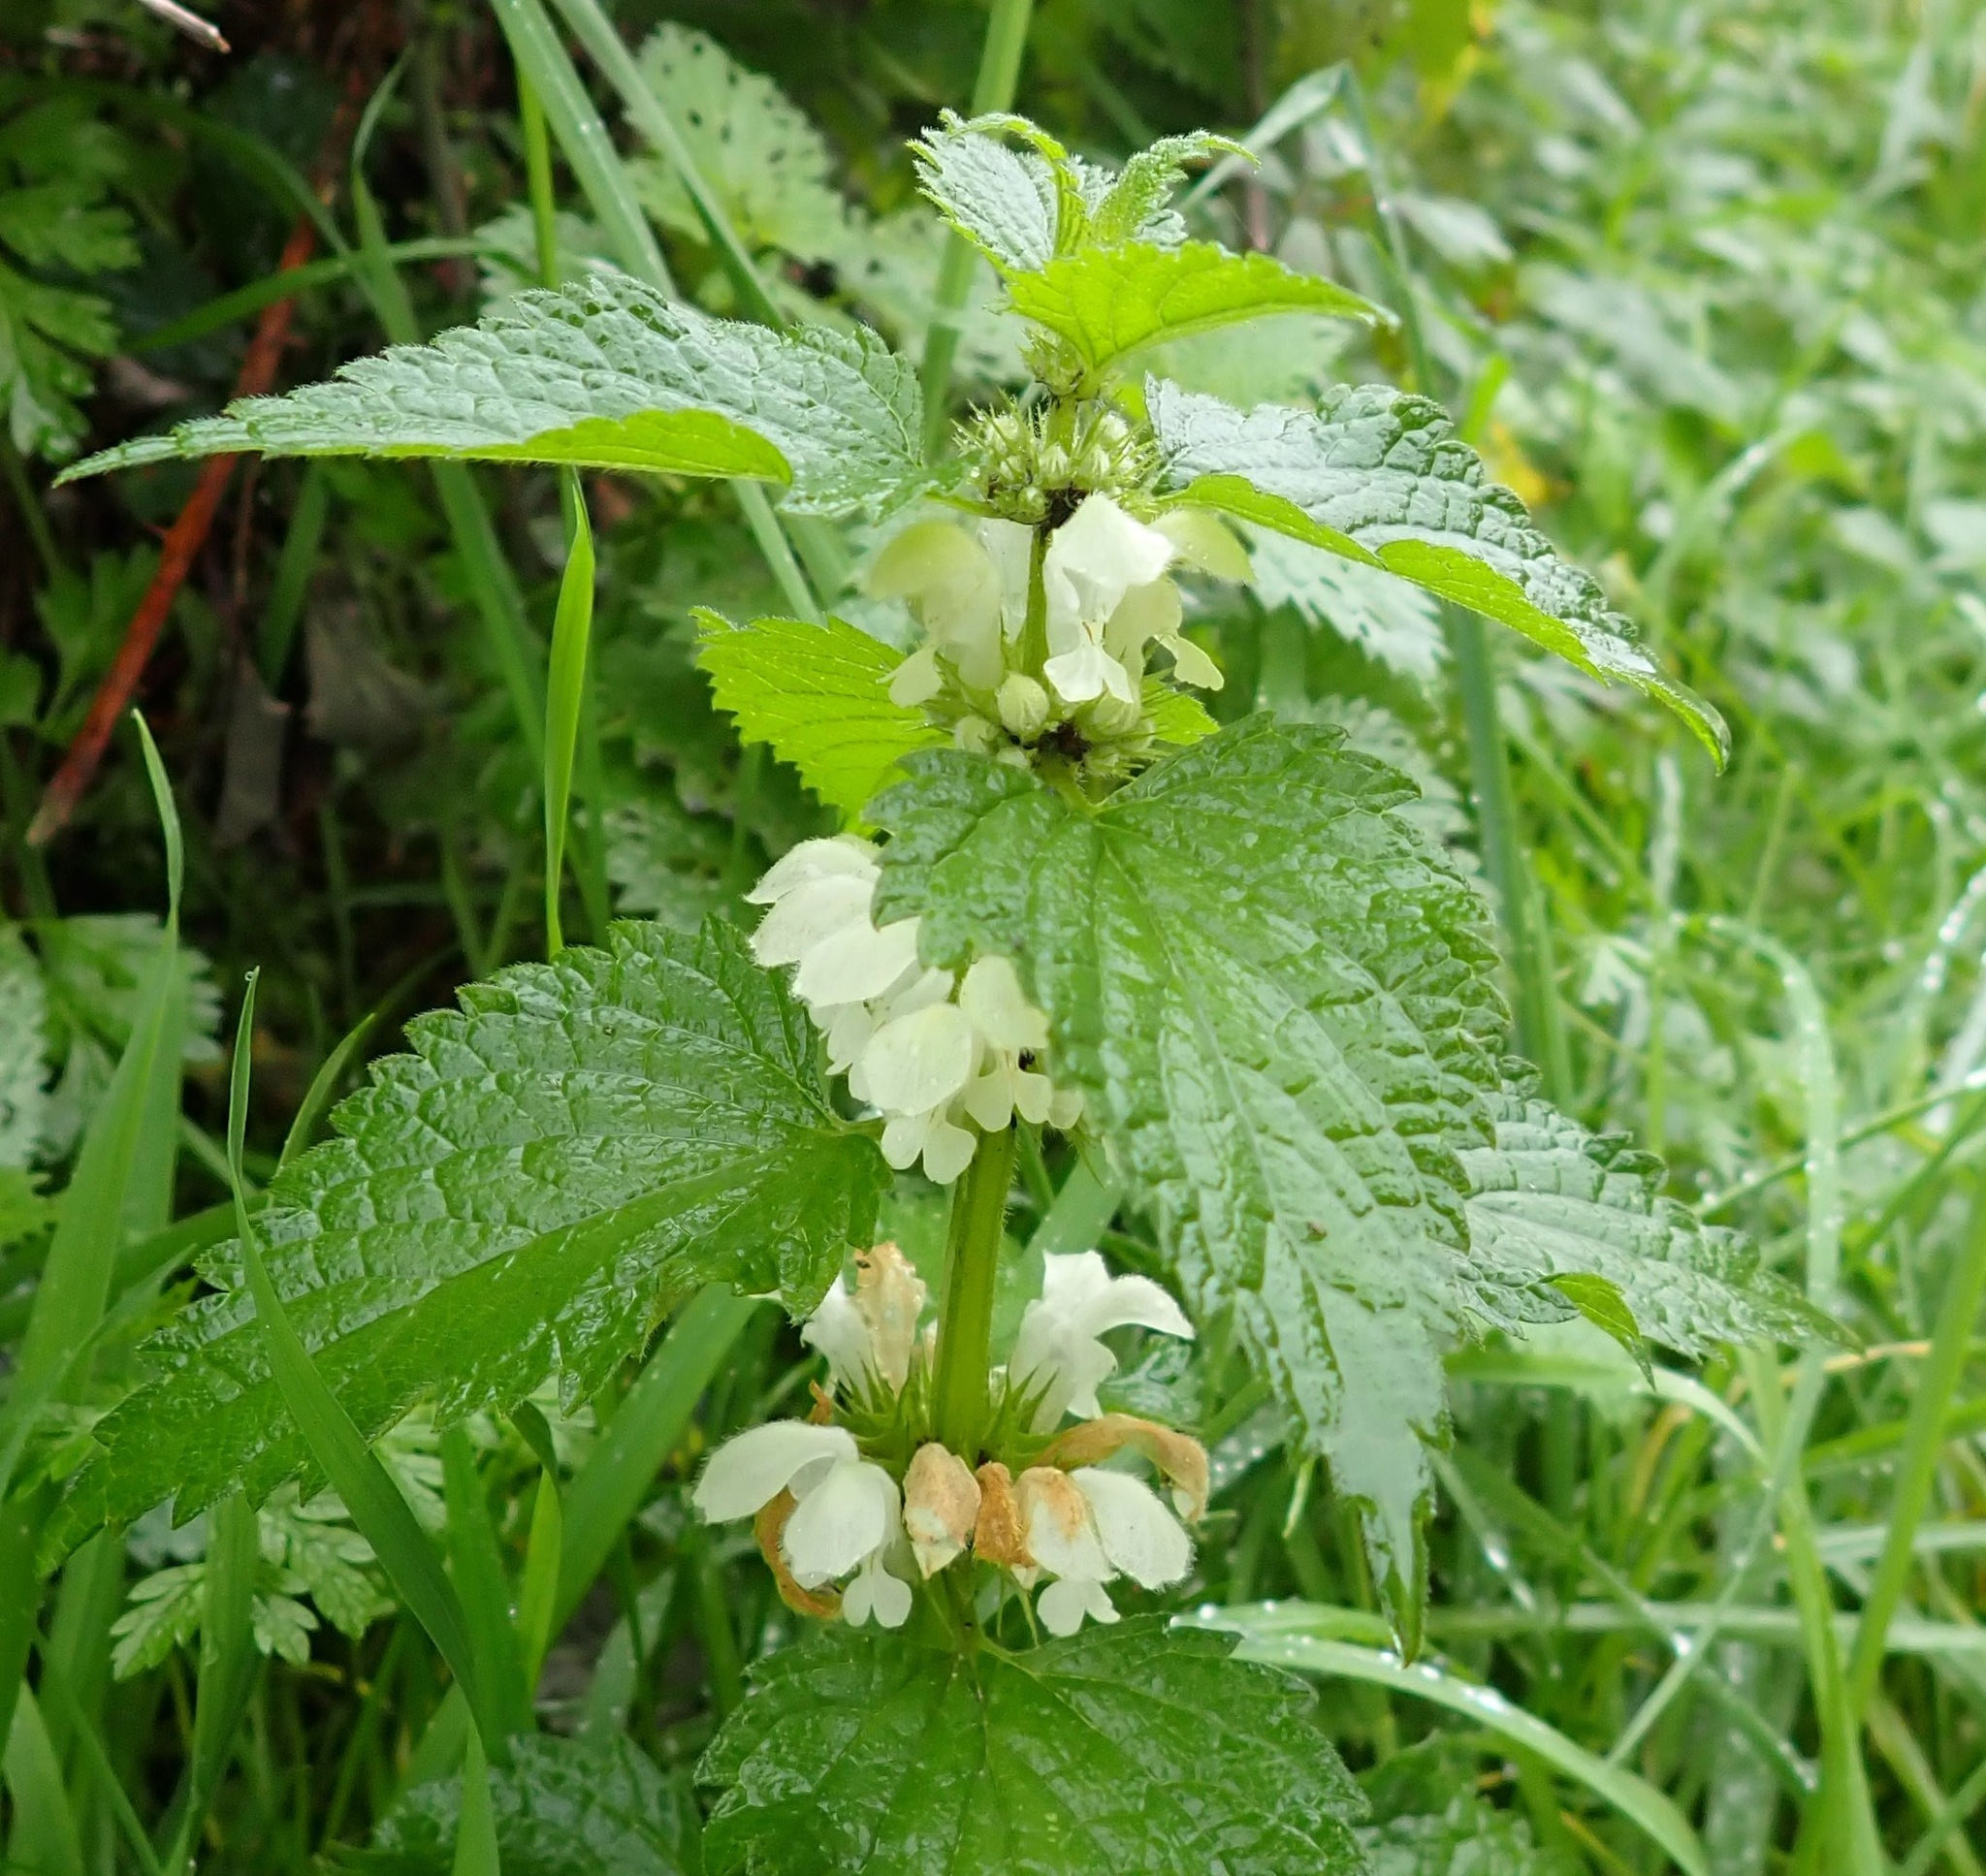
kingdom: Plantae
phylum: Tracheophyta
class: Magnoliopsida
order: Lamiales
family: Lamiaceae
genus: Lamium
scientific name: Lamium album
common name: White dead-nettle
